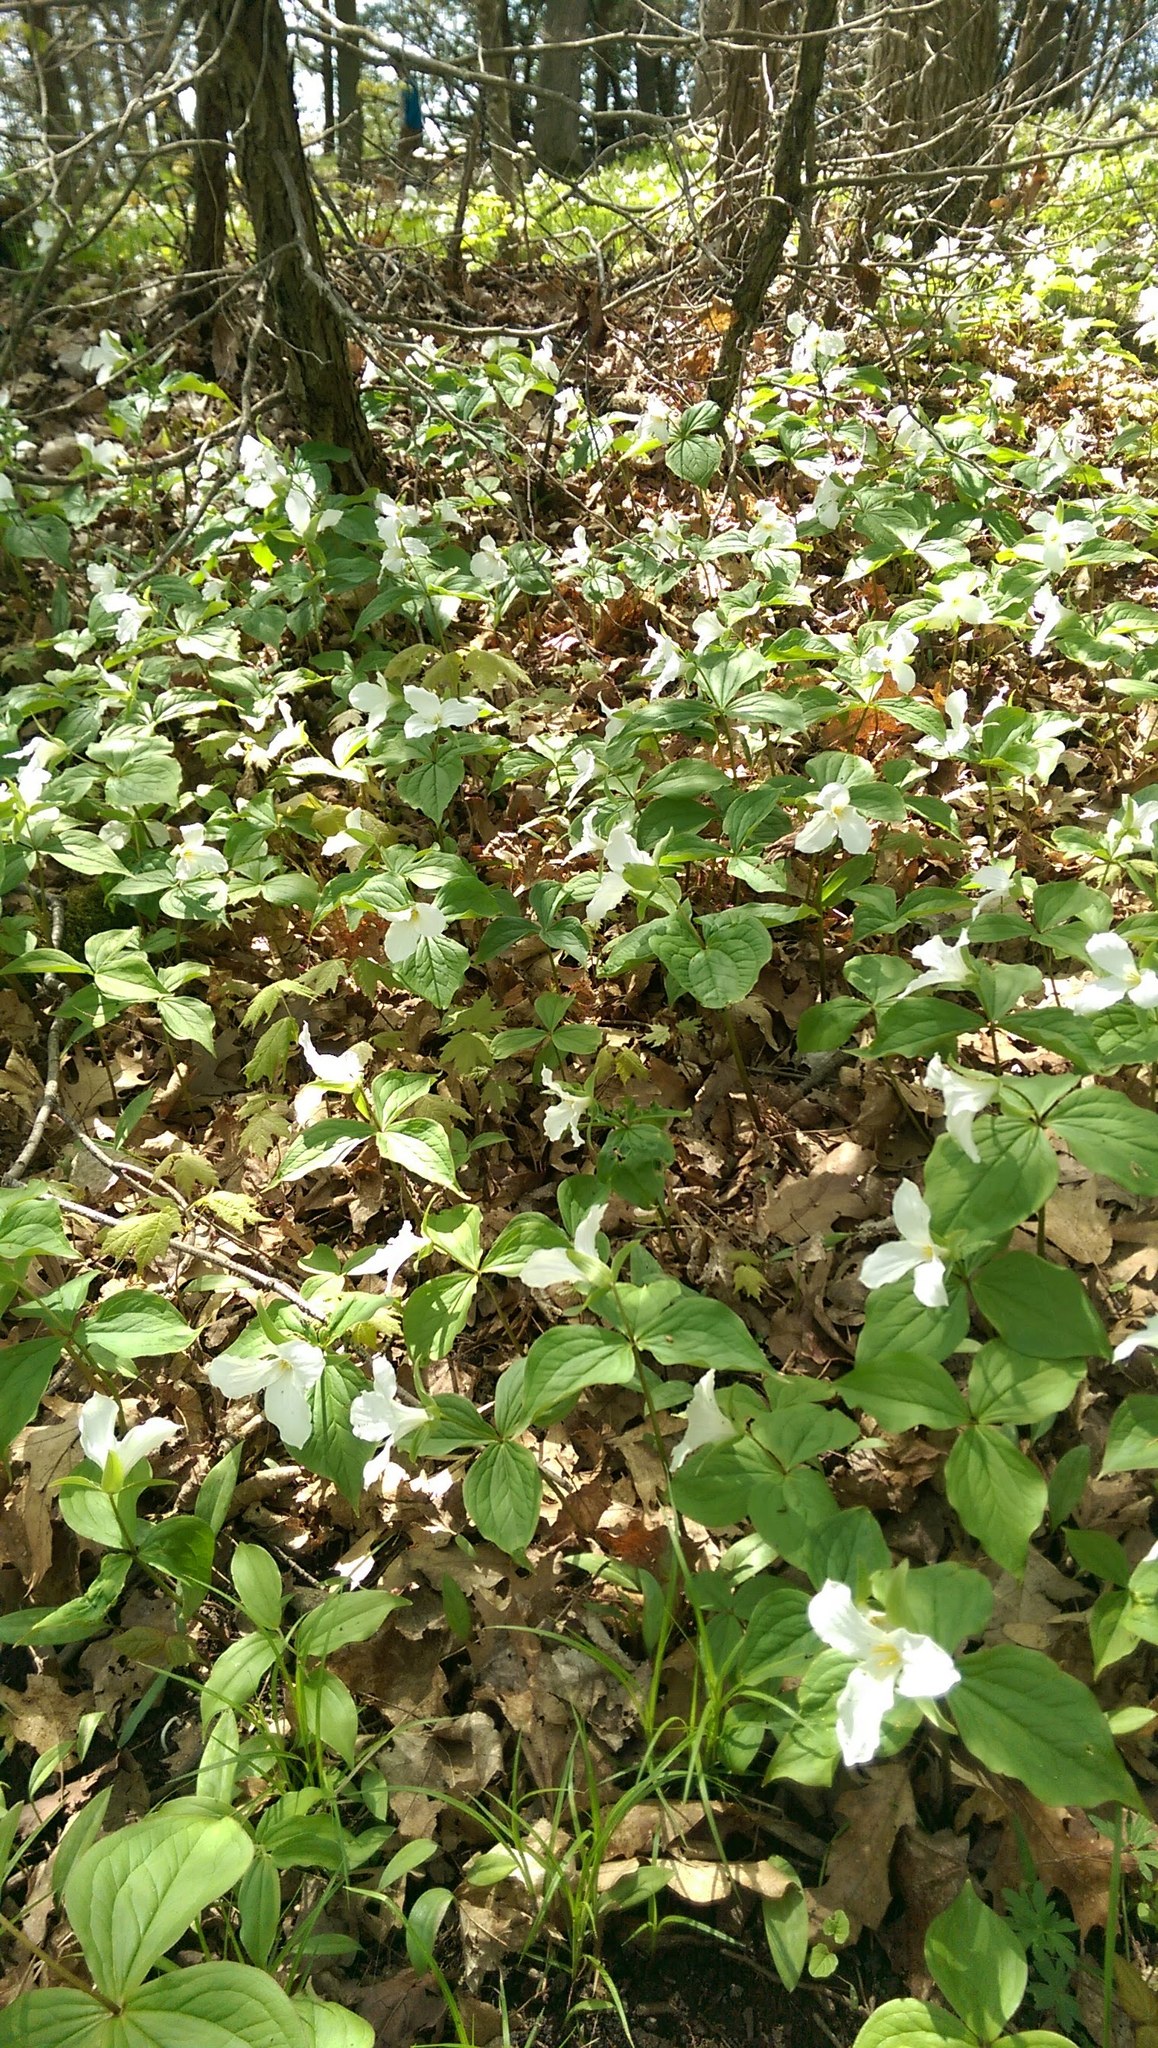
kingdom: Plantae
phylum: Tracheophyta
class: Liliopsida
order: Liliales
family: Melanthiaceae
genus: Trillium
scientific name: Trillium grandiflorum
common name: Great white trillium
